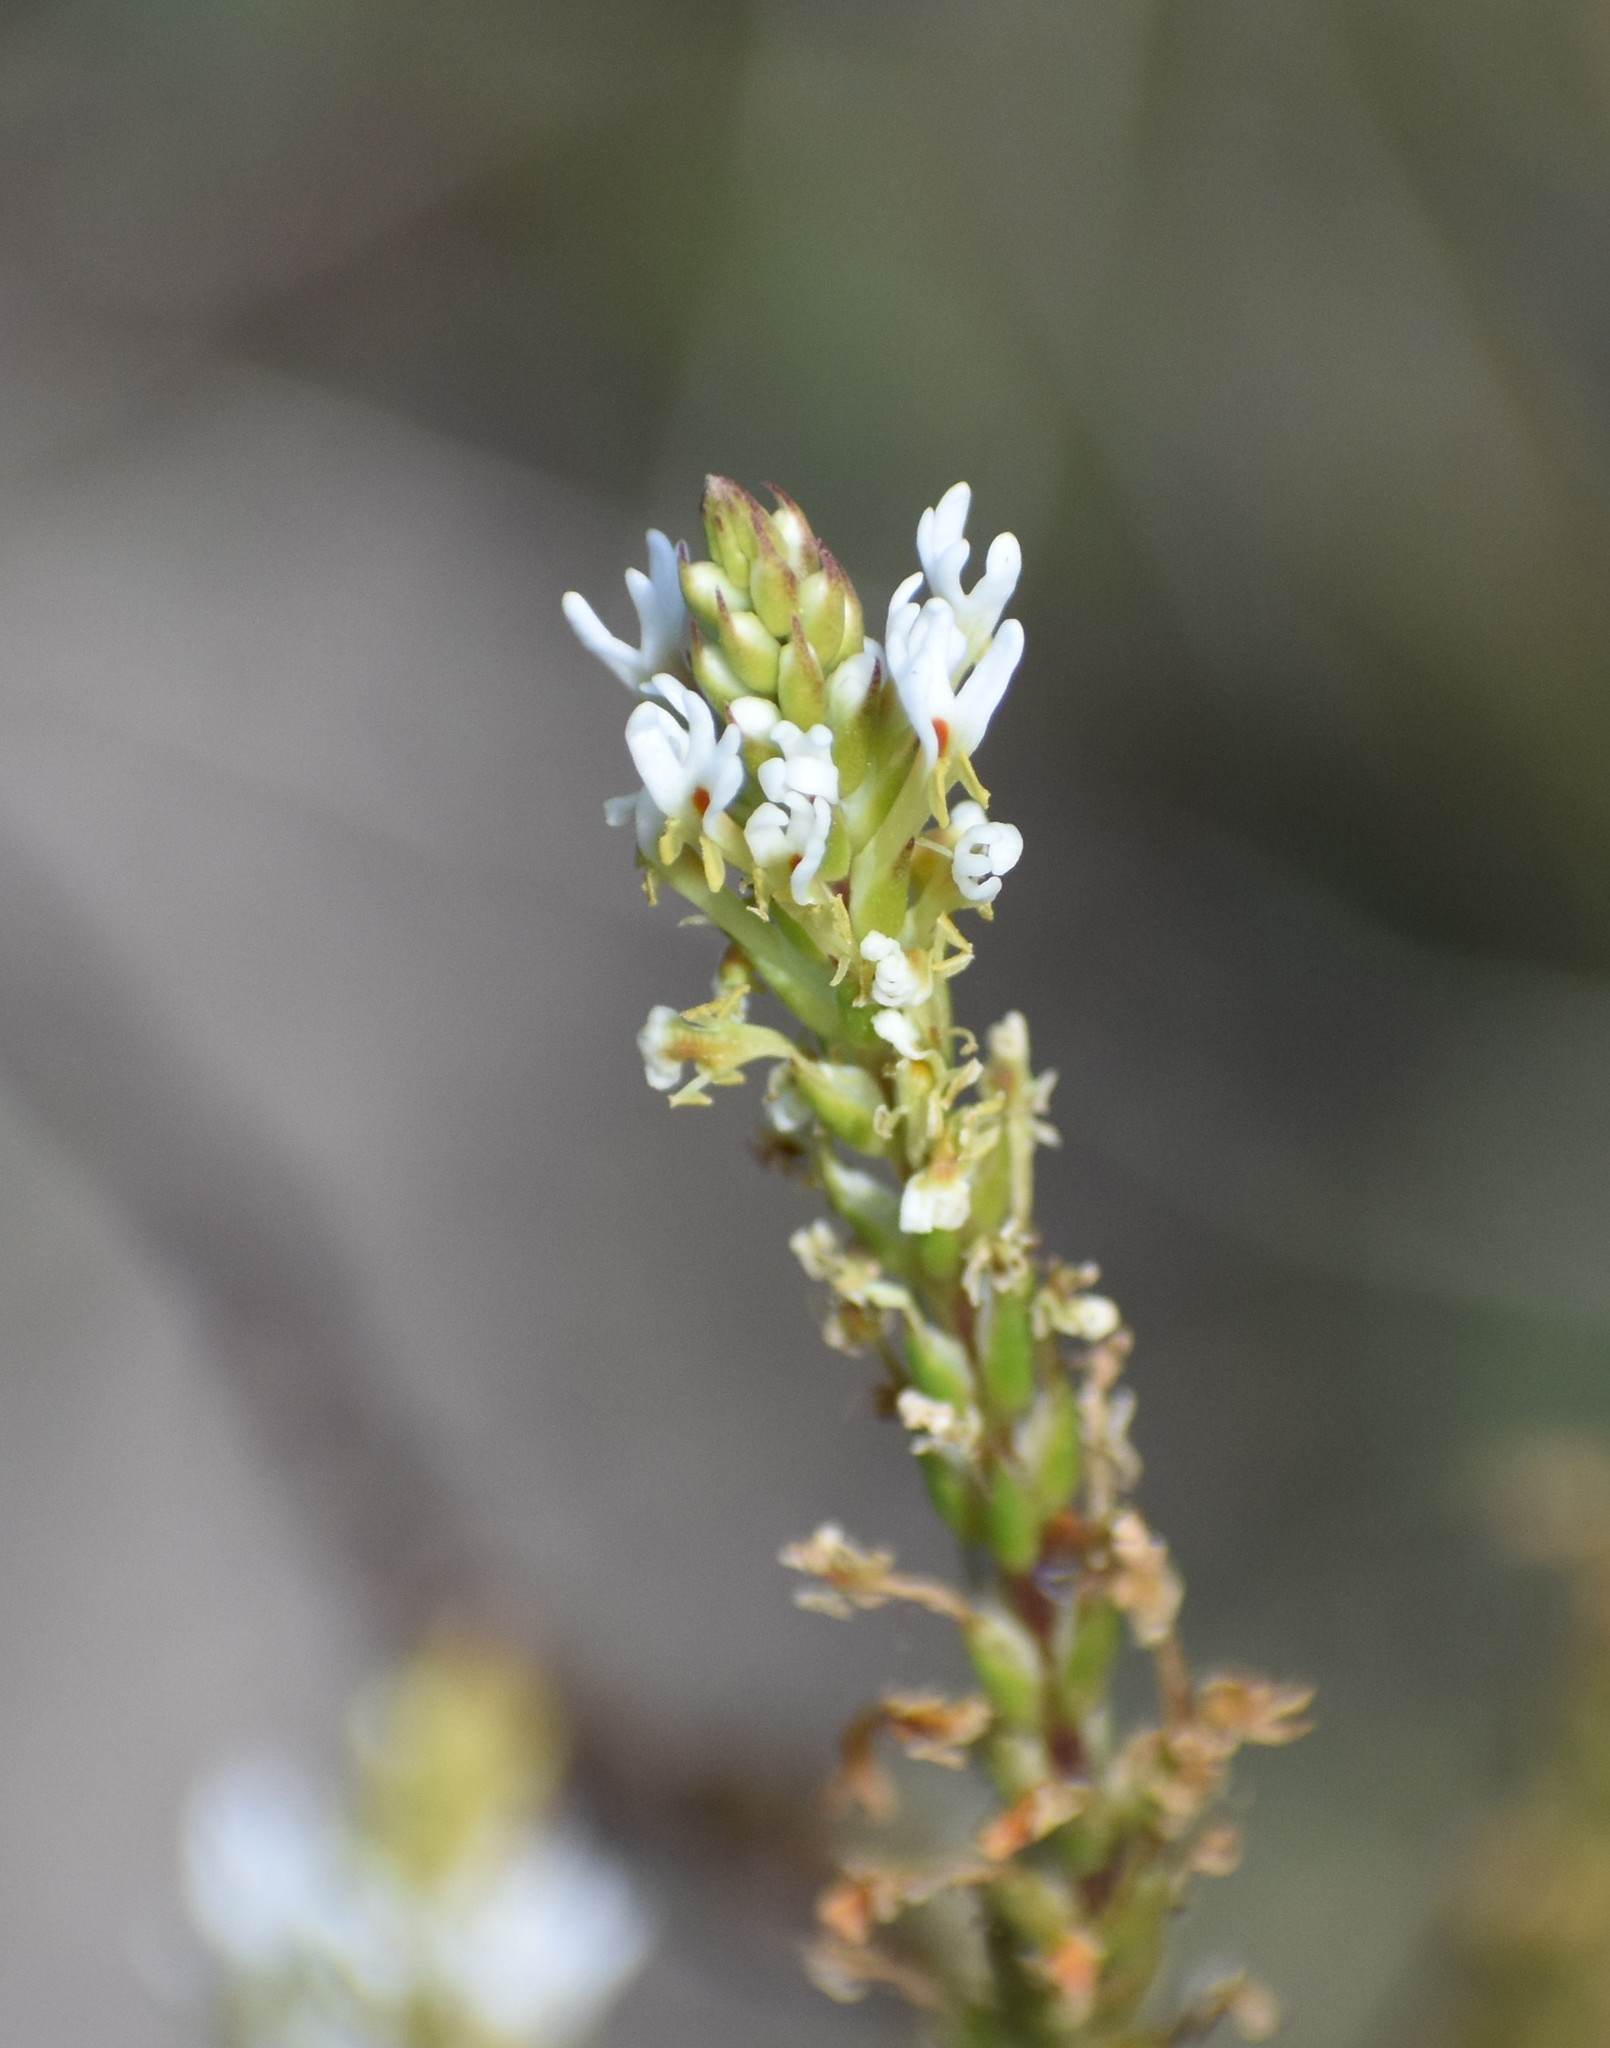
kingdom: Plantae
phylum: Tracheophyta
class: Magnoliopsida
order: Lamiales
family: Scrophulariaceae
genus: Hebenstretia
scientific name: Hebenstretia integrifolia
